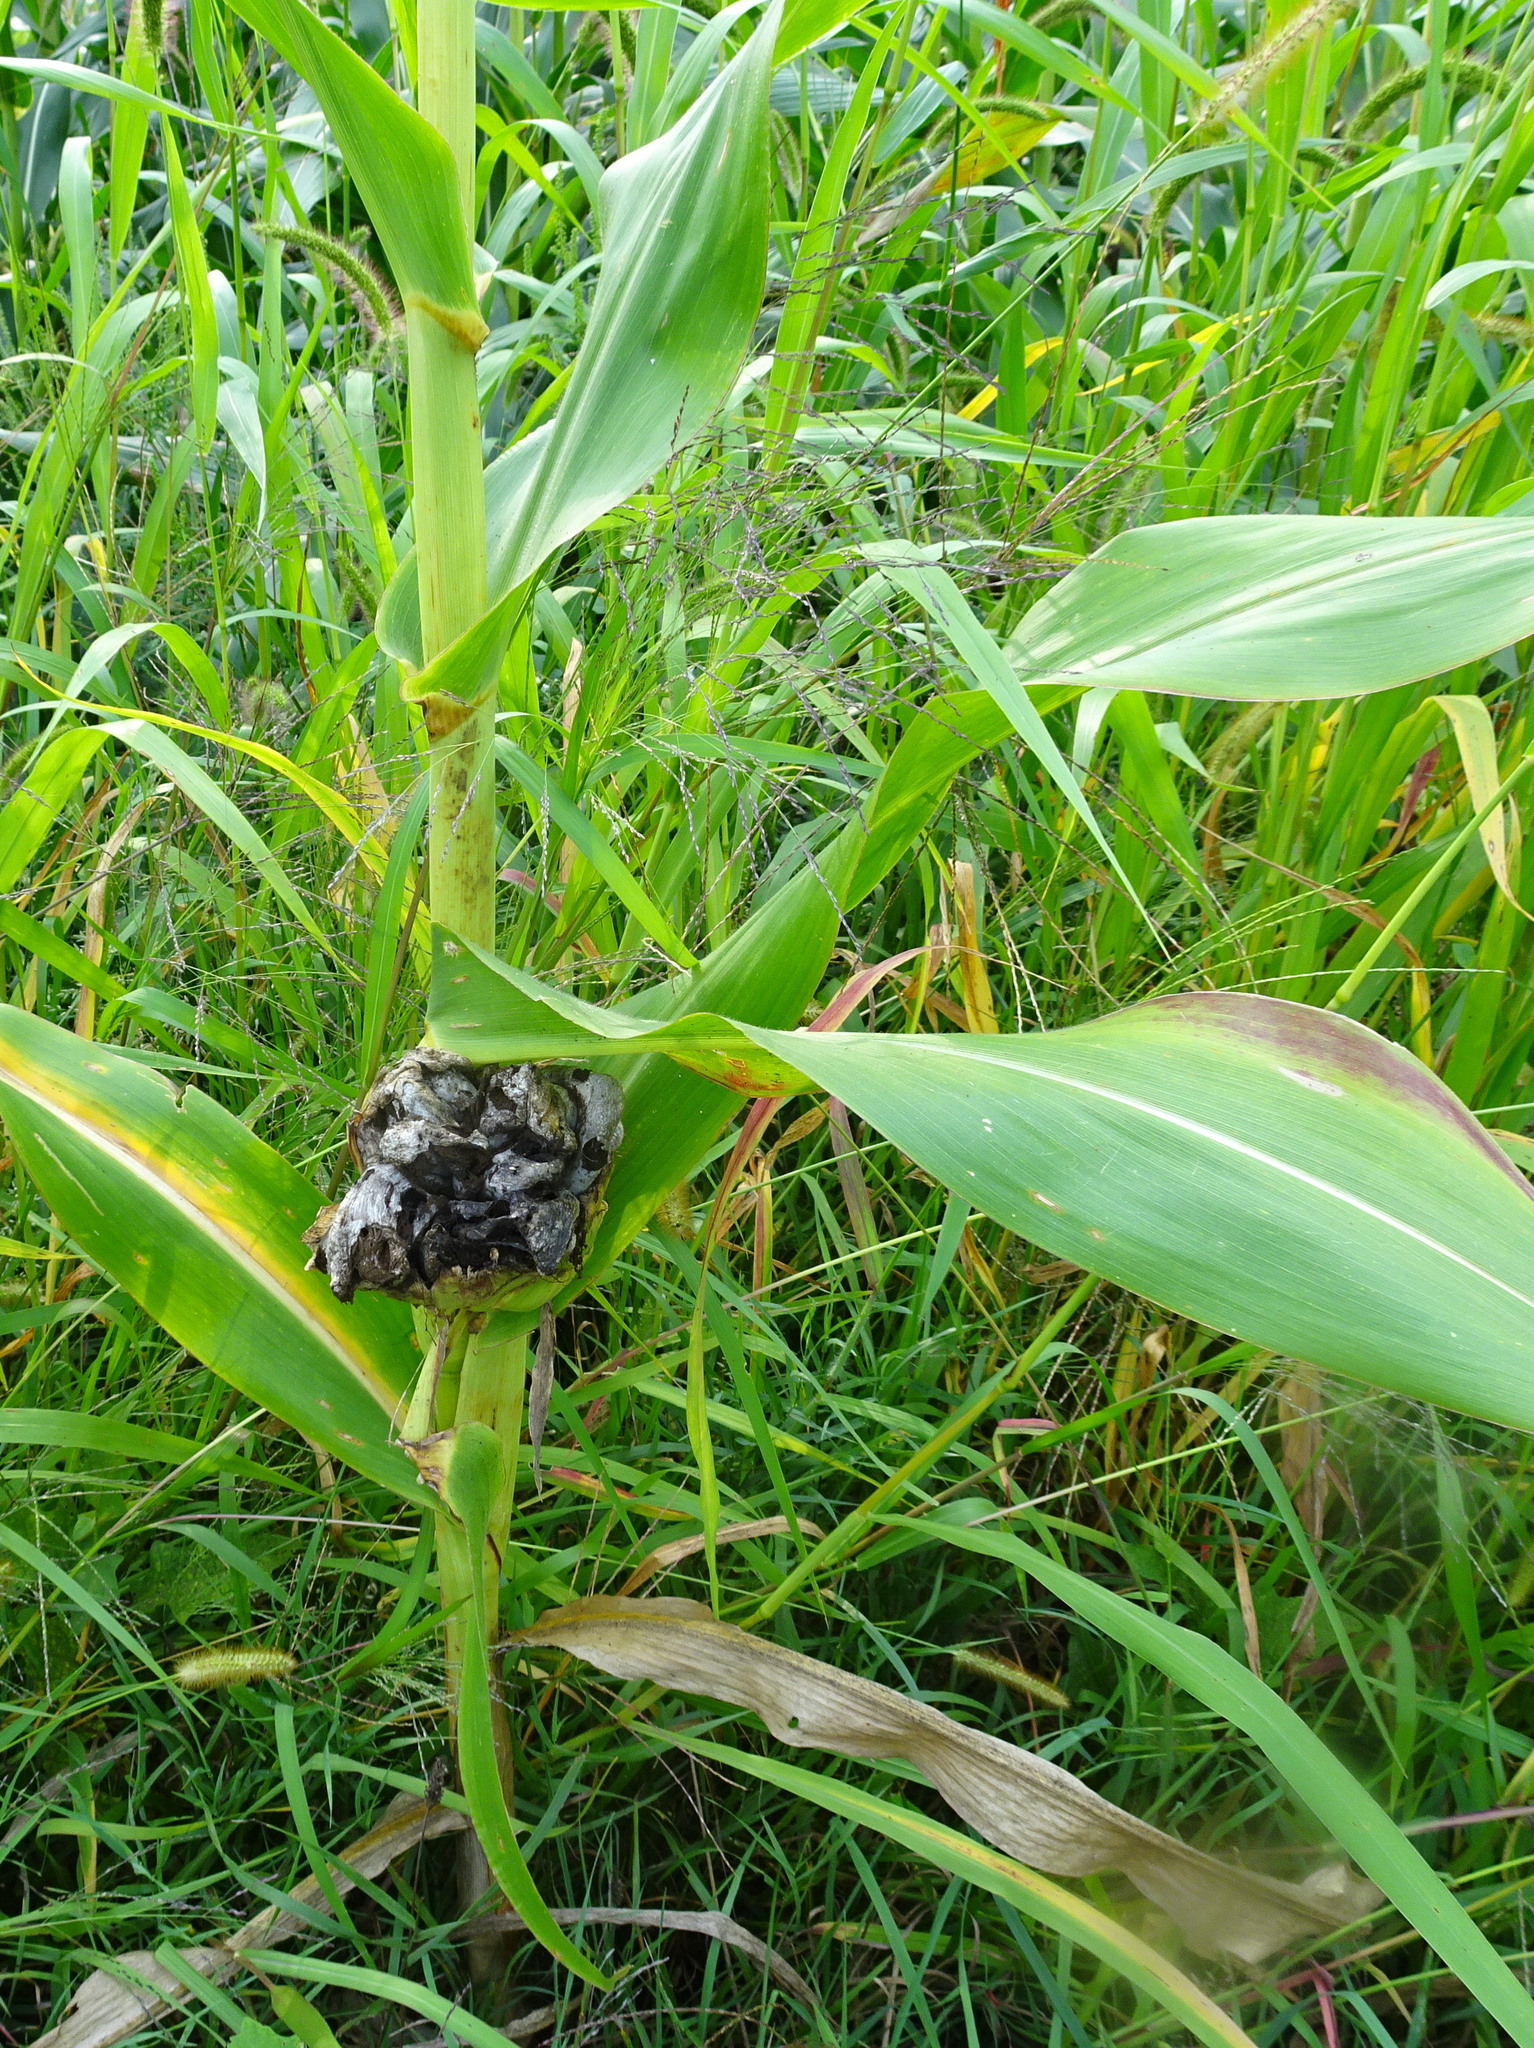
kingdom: Fungi
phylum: Basidiomycota
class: Ustilaginomycetes
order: Ustilaginales
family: Ustilaginaceae
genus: Mycosarcoma
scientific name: Mycosarcoma maydis
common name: Corn smut
